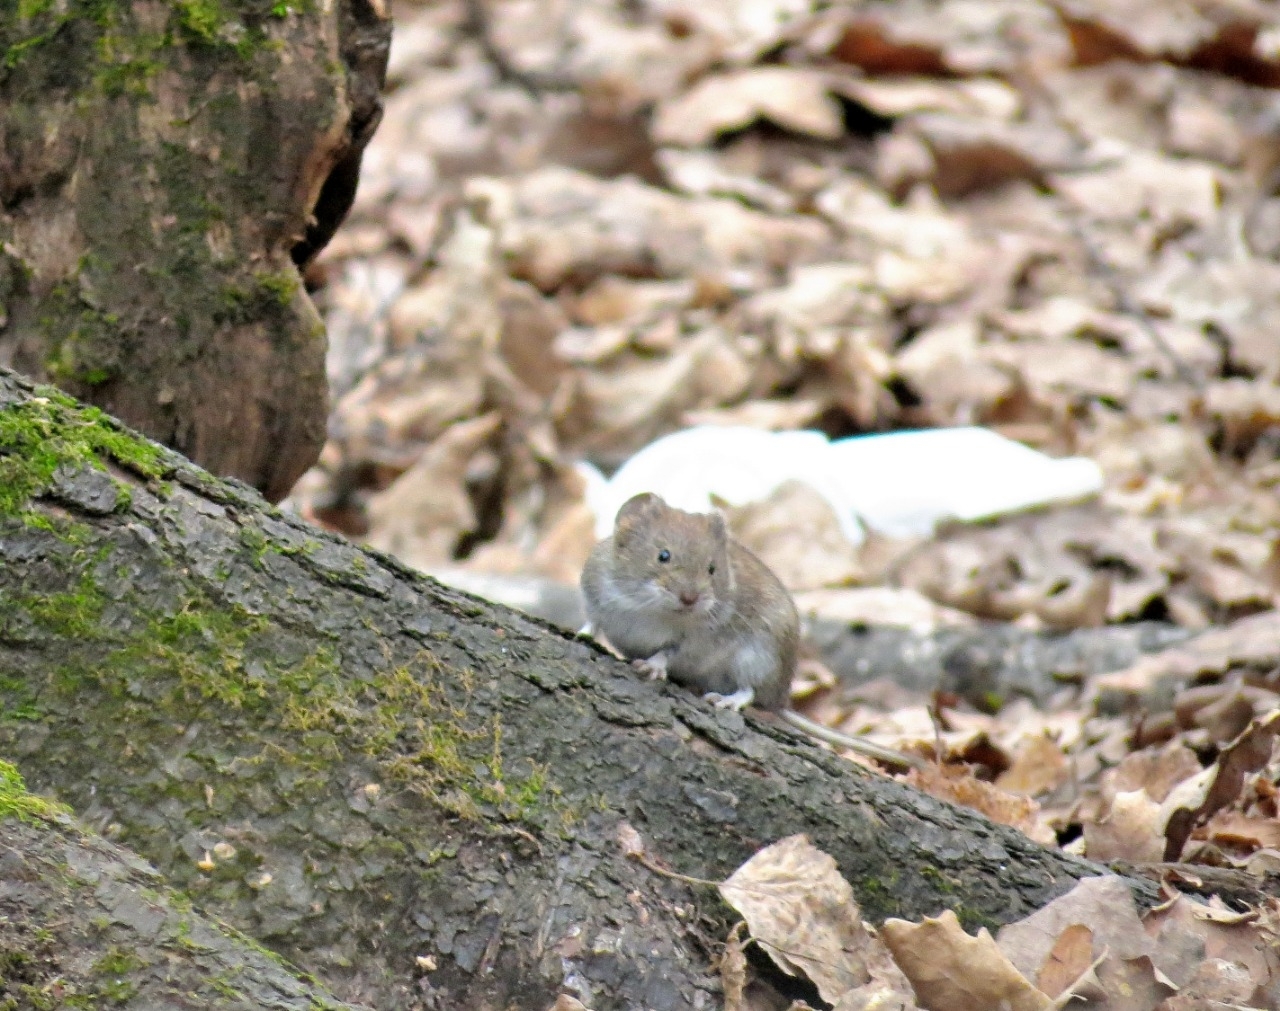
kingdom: Animalia
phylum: Chordata
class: Mammalia
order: Rodentia
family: Cricetidae
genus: Myodes
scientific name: Myodes glareolus
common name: Bank vole
